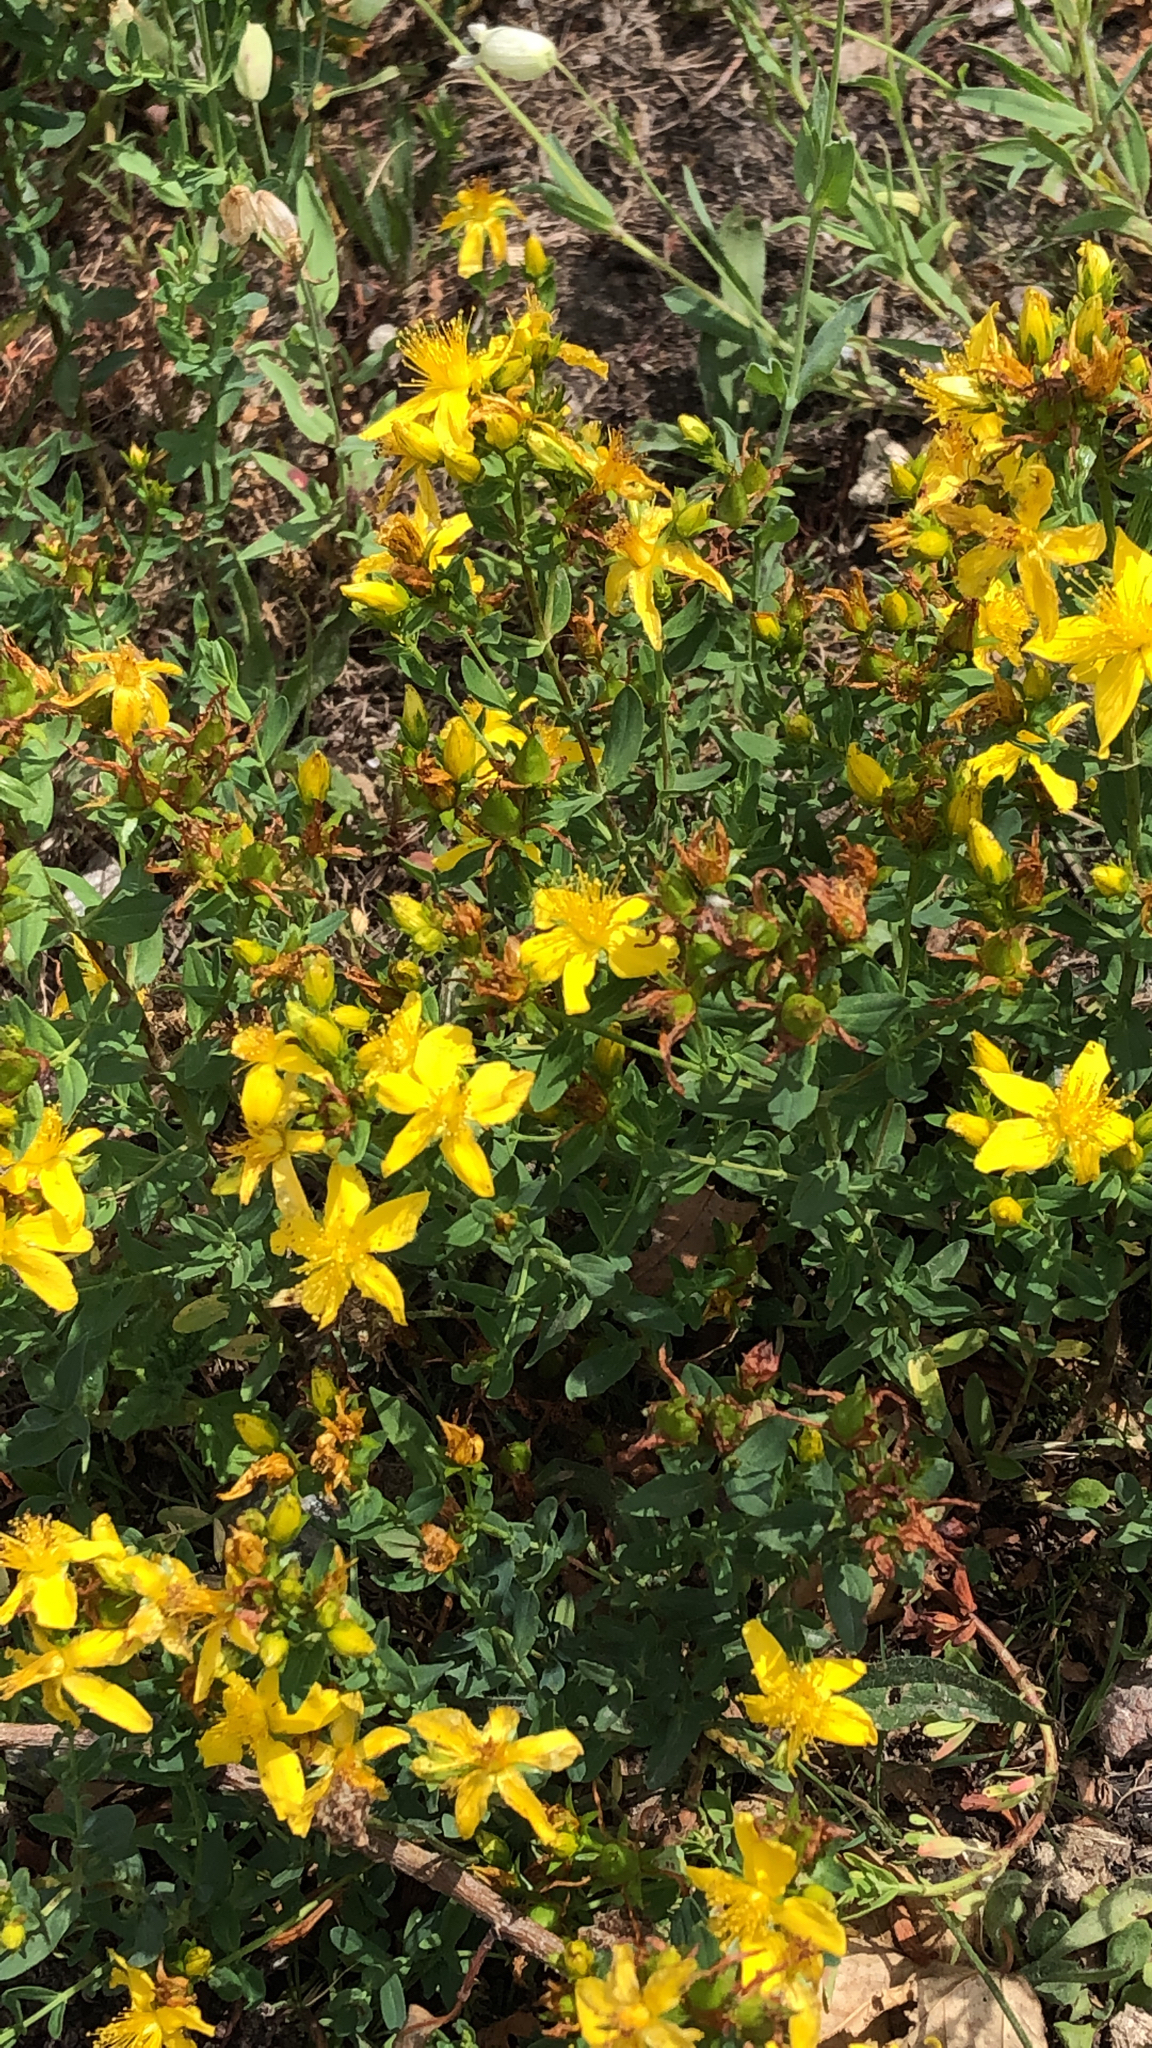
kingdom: Plantae
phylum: Tracheophyta
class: Magnoliopsida
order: Malpighiales
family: Hypericaceae
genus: Hypericum
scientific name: Hypericum perforatum
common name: Common st. johnswort
